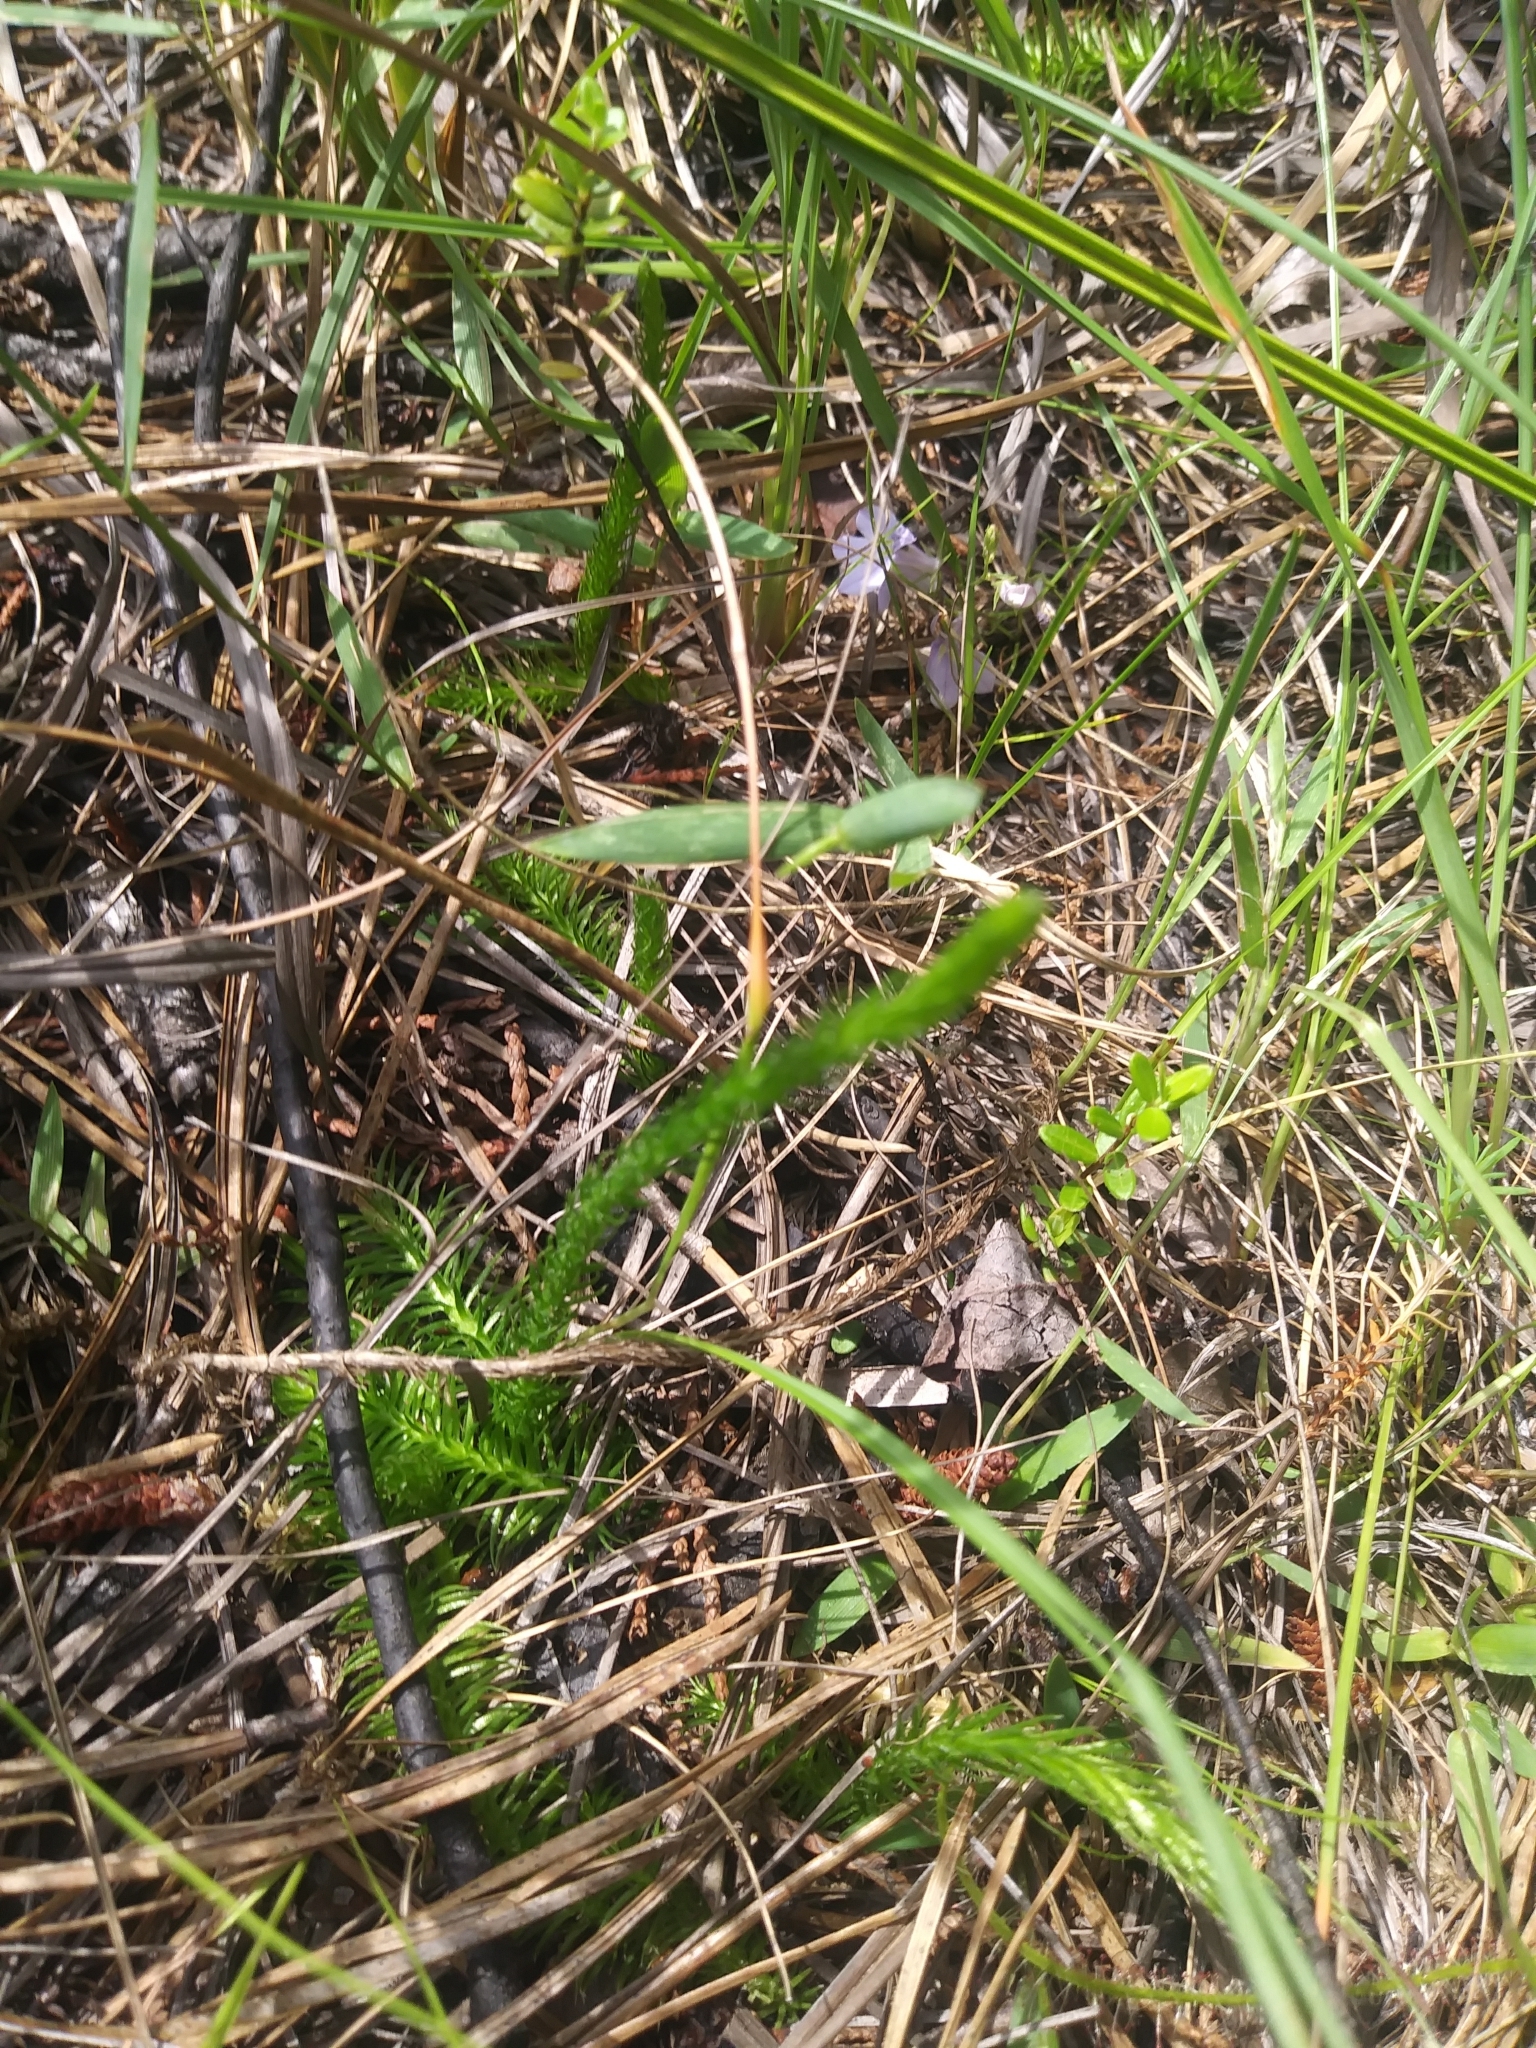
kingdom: Plantae
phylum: Tracheophyta
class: Lycopodiopsida
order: Lycopodiales
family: Lycopodiaceae
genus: Lycopodiella
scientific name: Lycopodiella appressa
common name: Appressed bog clubmoss
